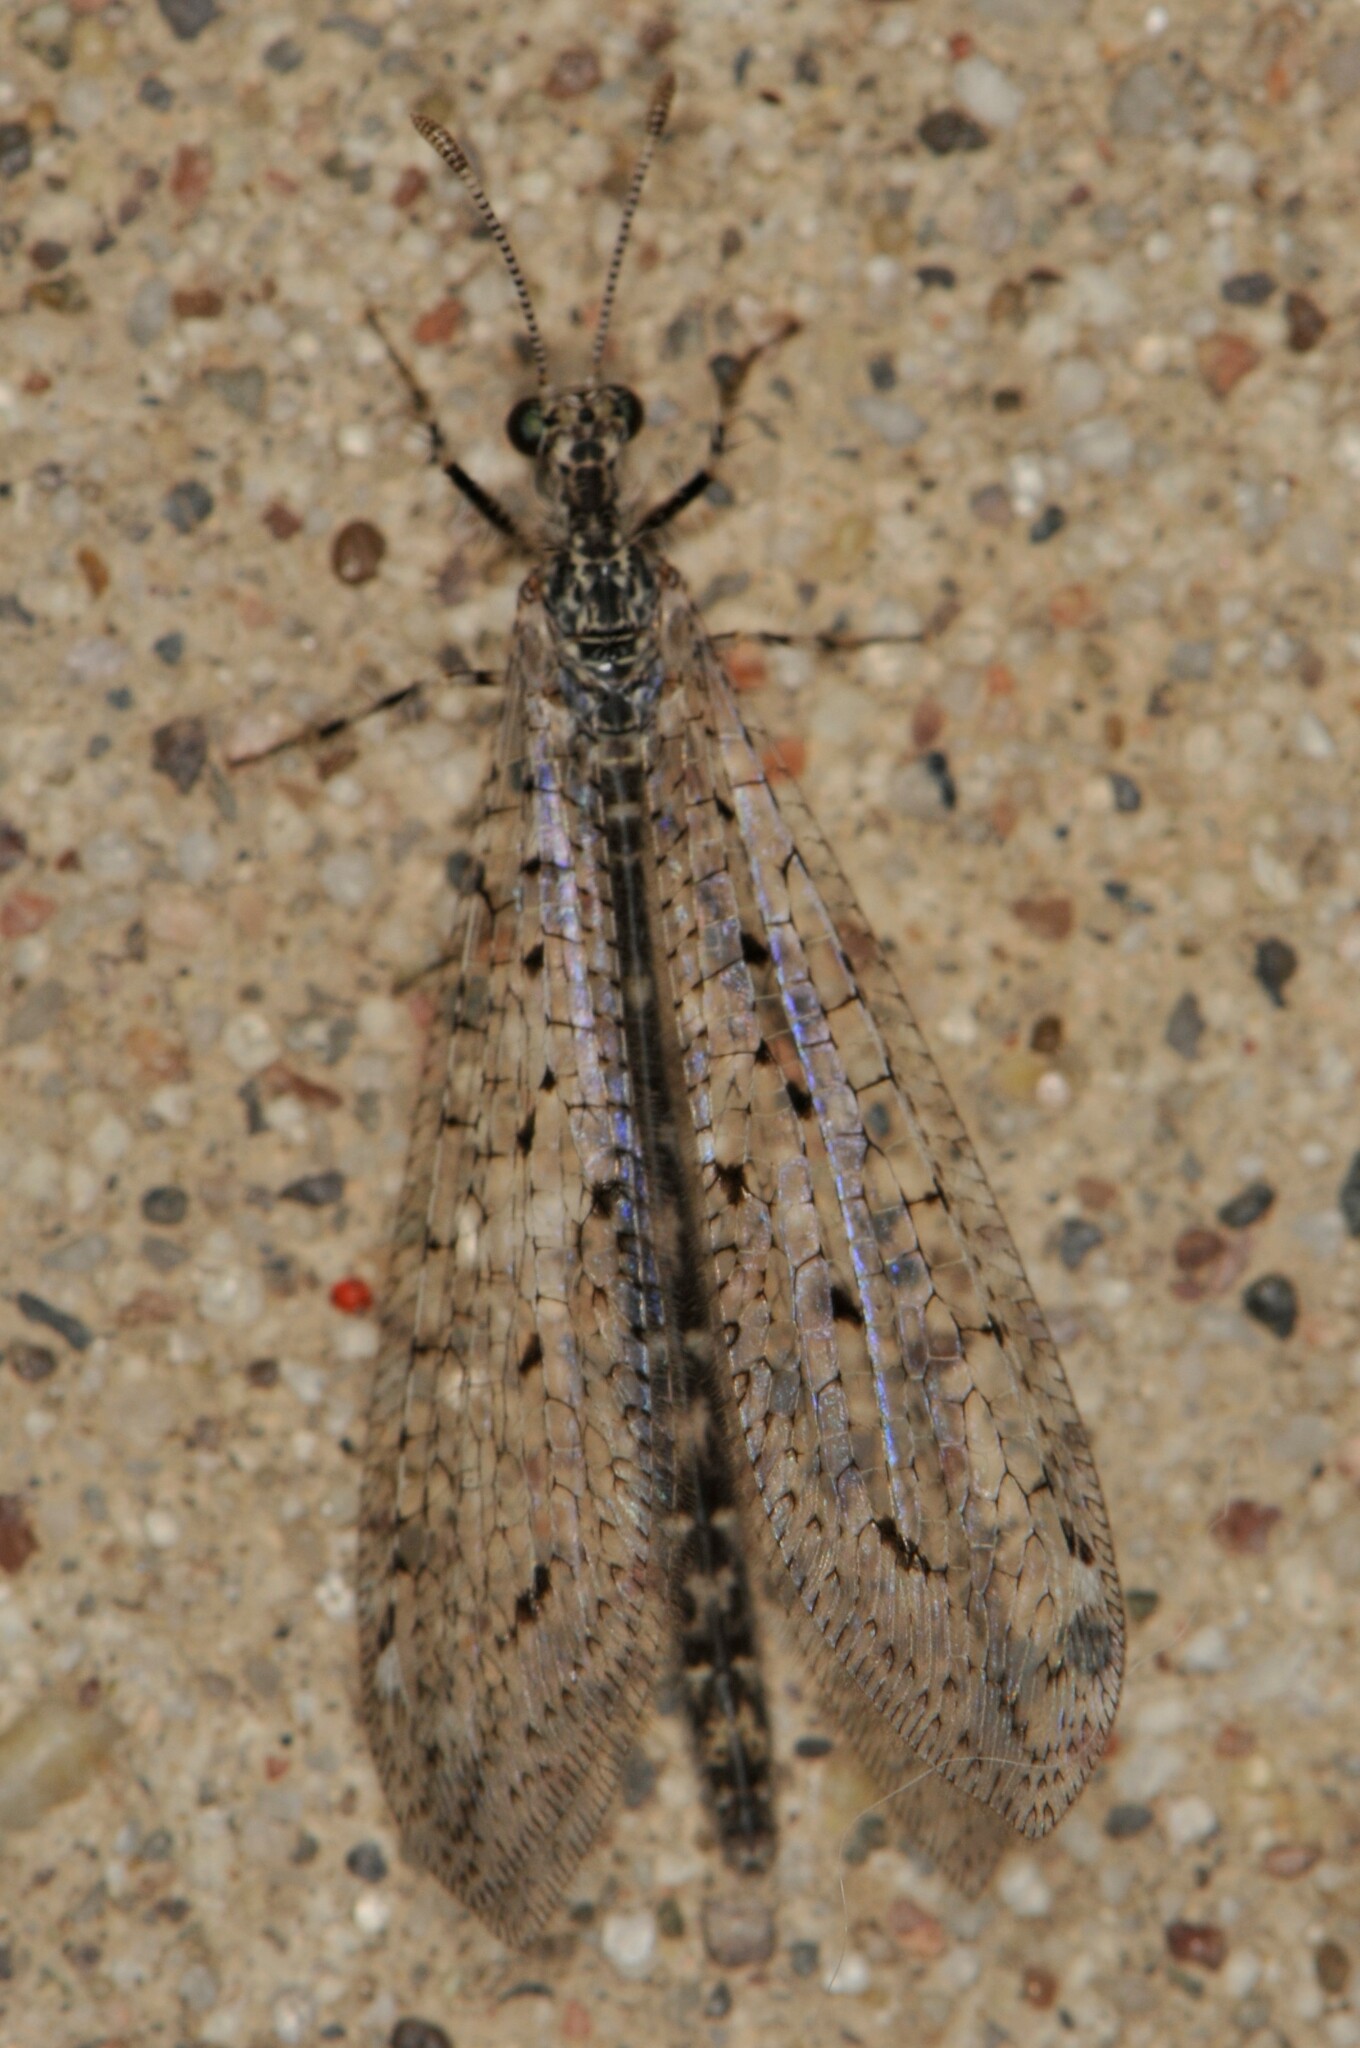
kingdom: Animalia
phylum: Arthropoda
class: Insecta
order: Neuroptera
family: Myrmeleontidae
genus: Chaetoleon
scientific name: Chaetoleon pusillus
